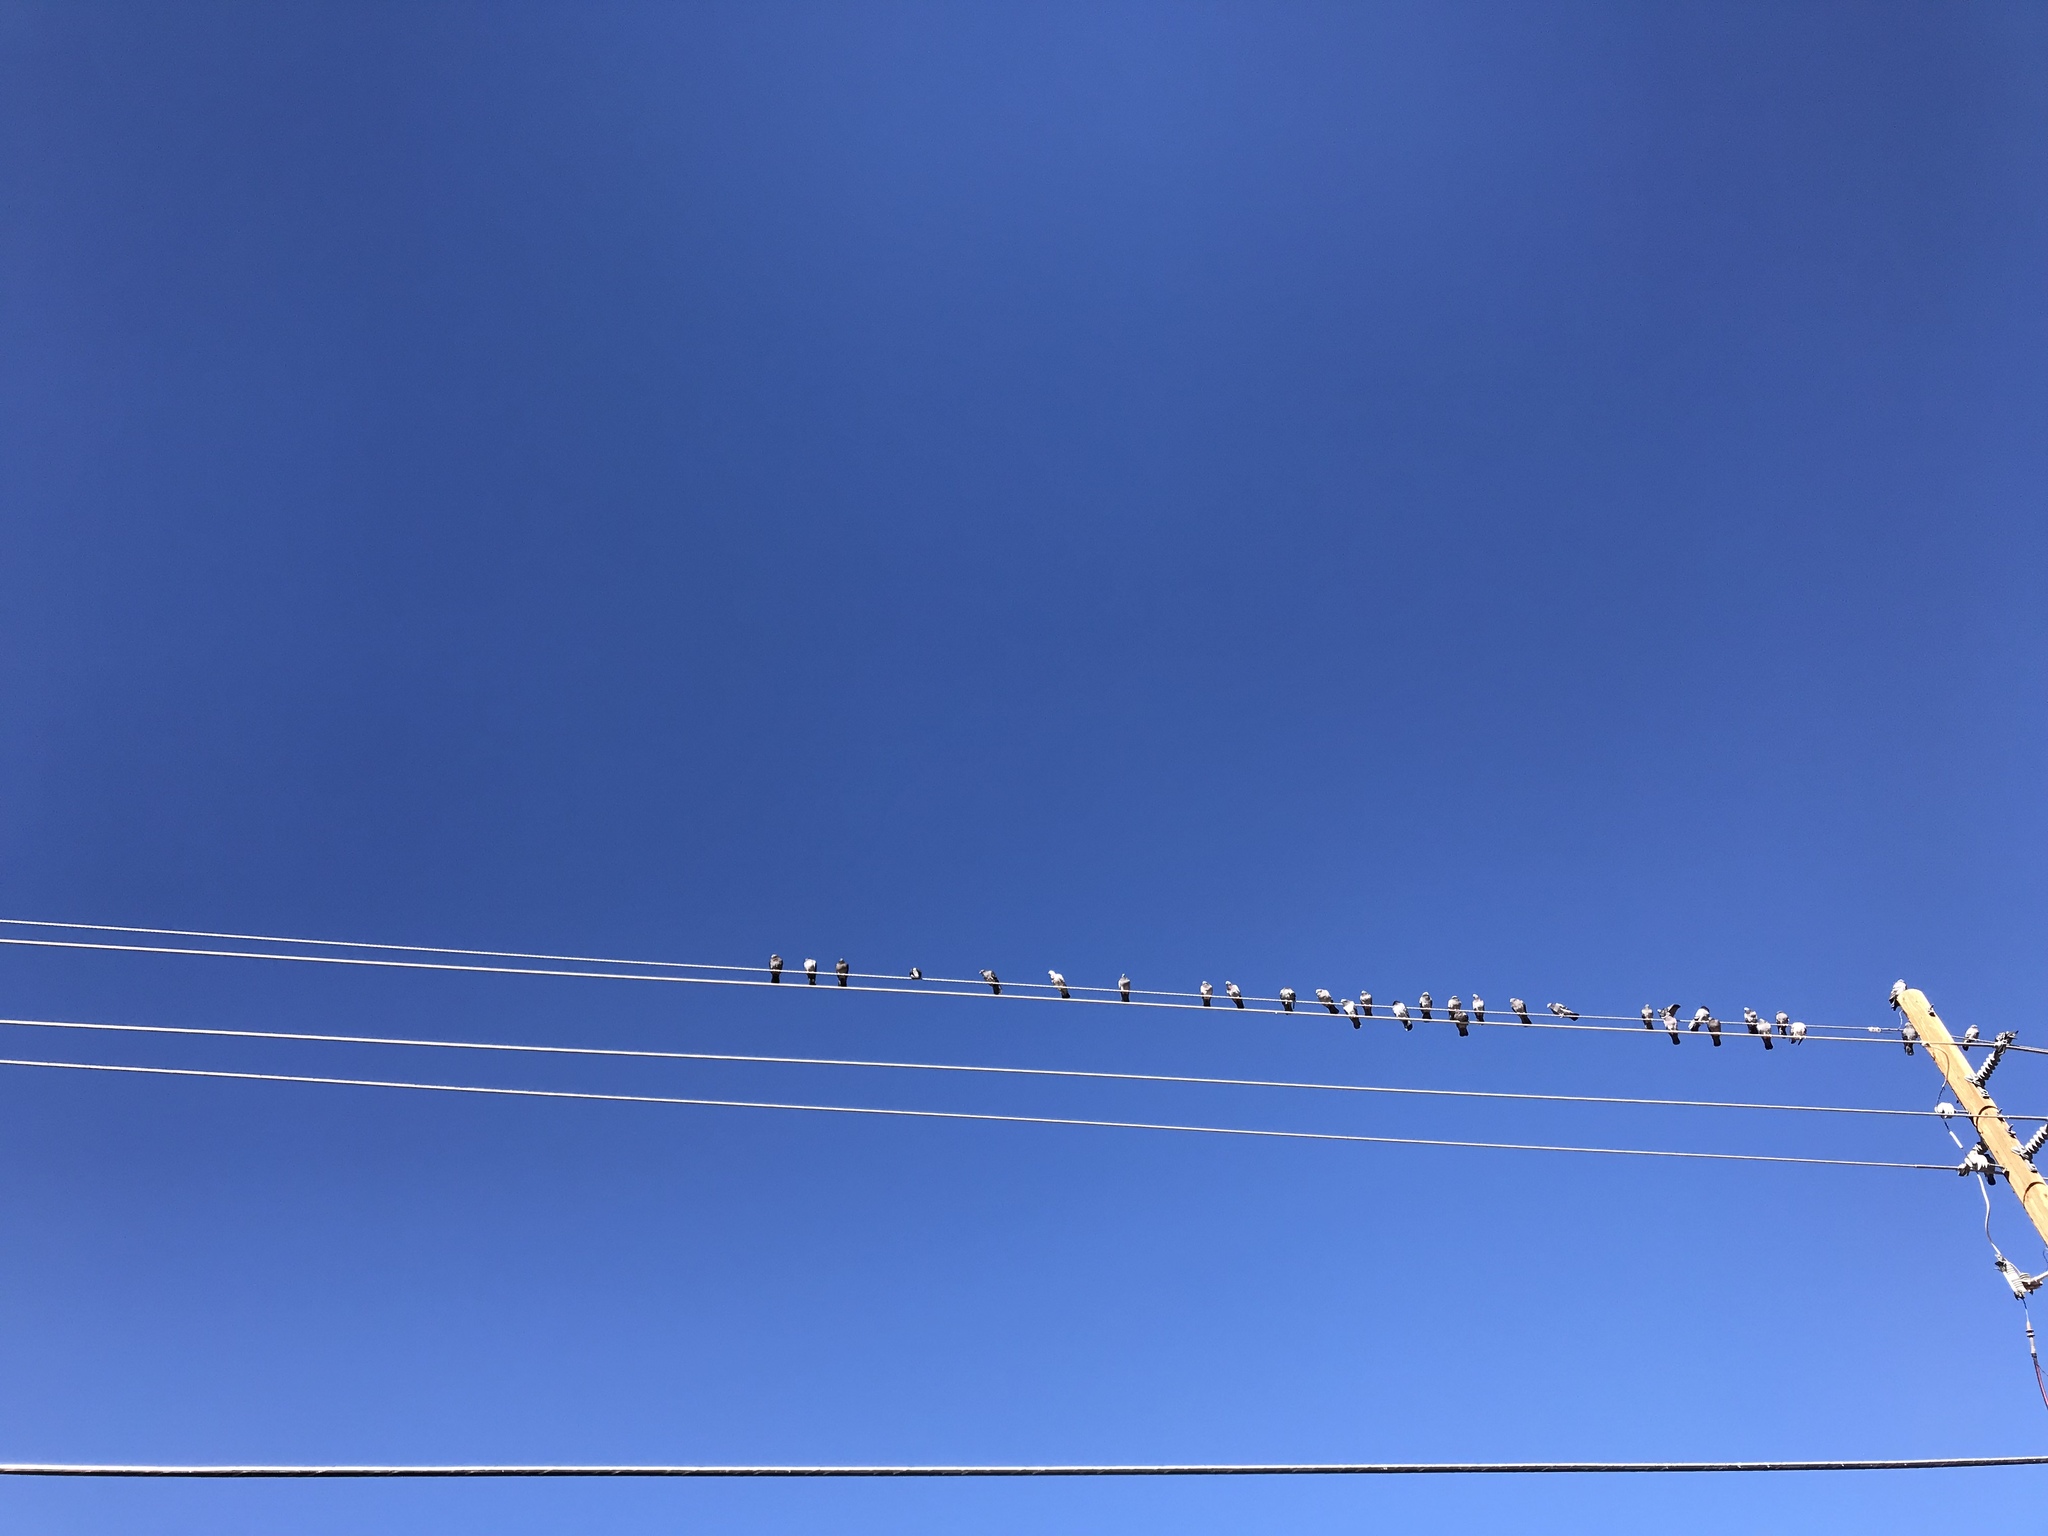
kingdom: Animalia
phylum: Chordata
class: Aves
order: Columbiformes
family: Columbidae
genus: Columba
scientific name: Columba livia
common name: Rock pigeon
